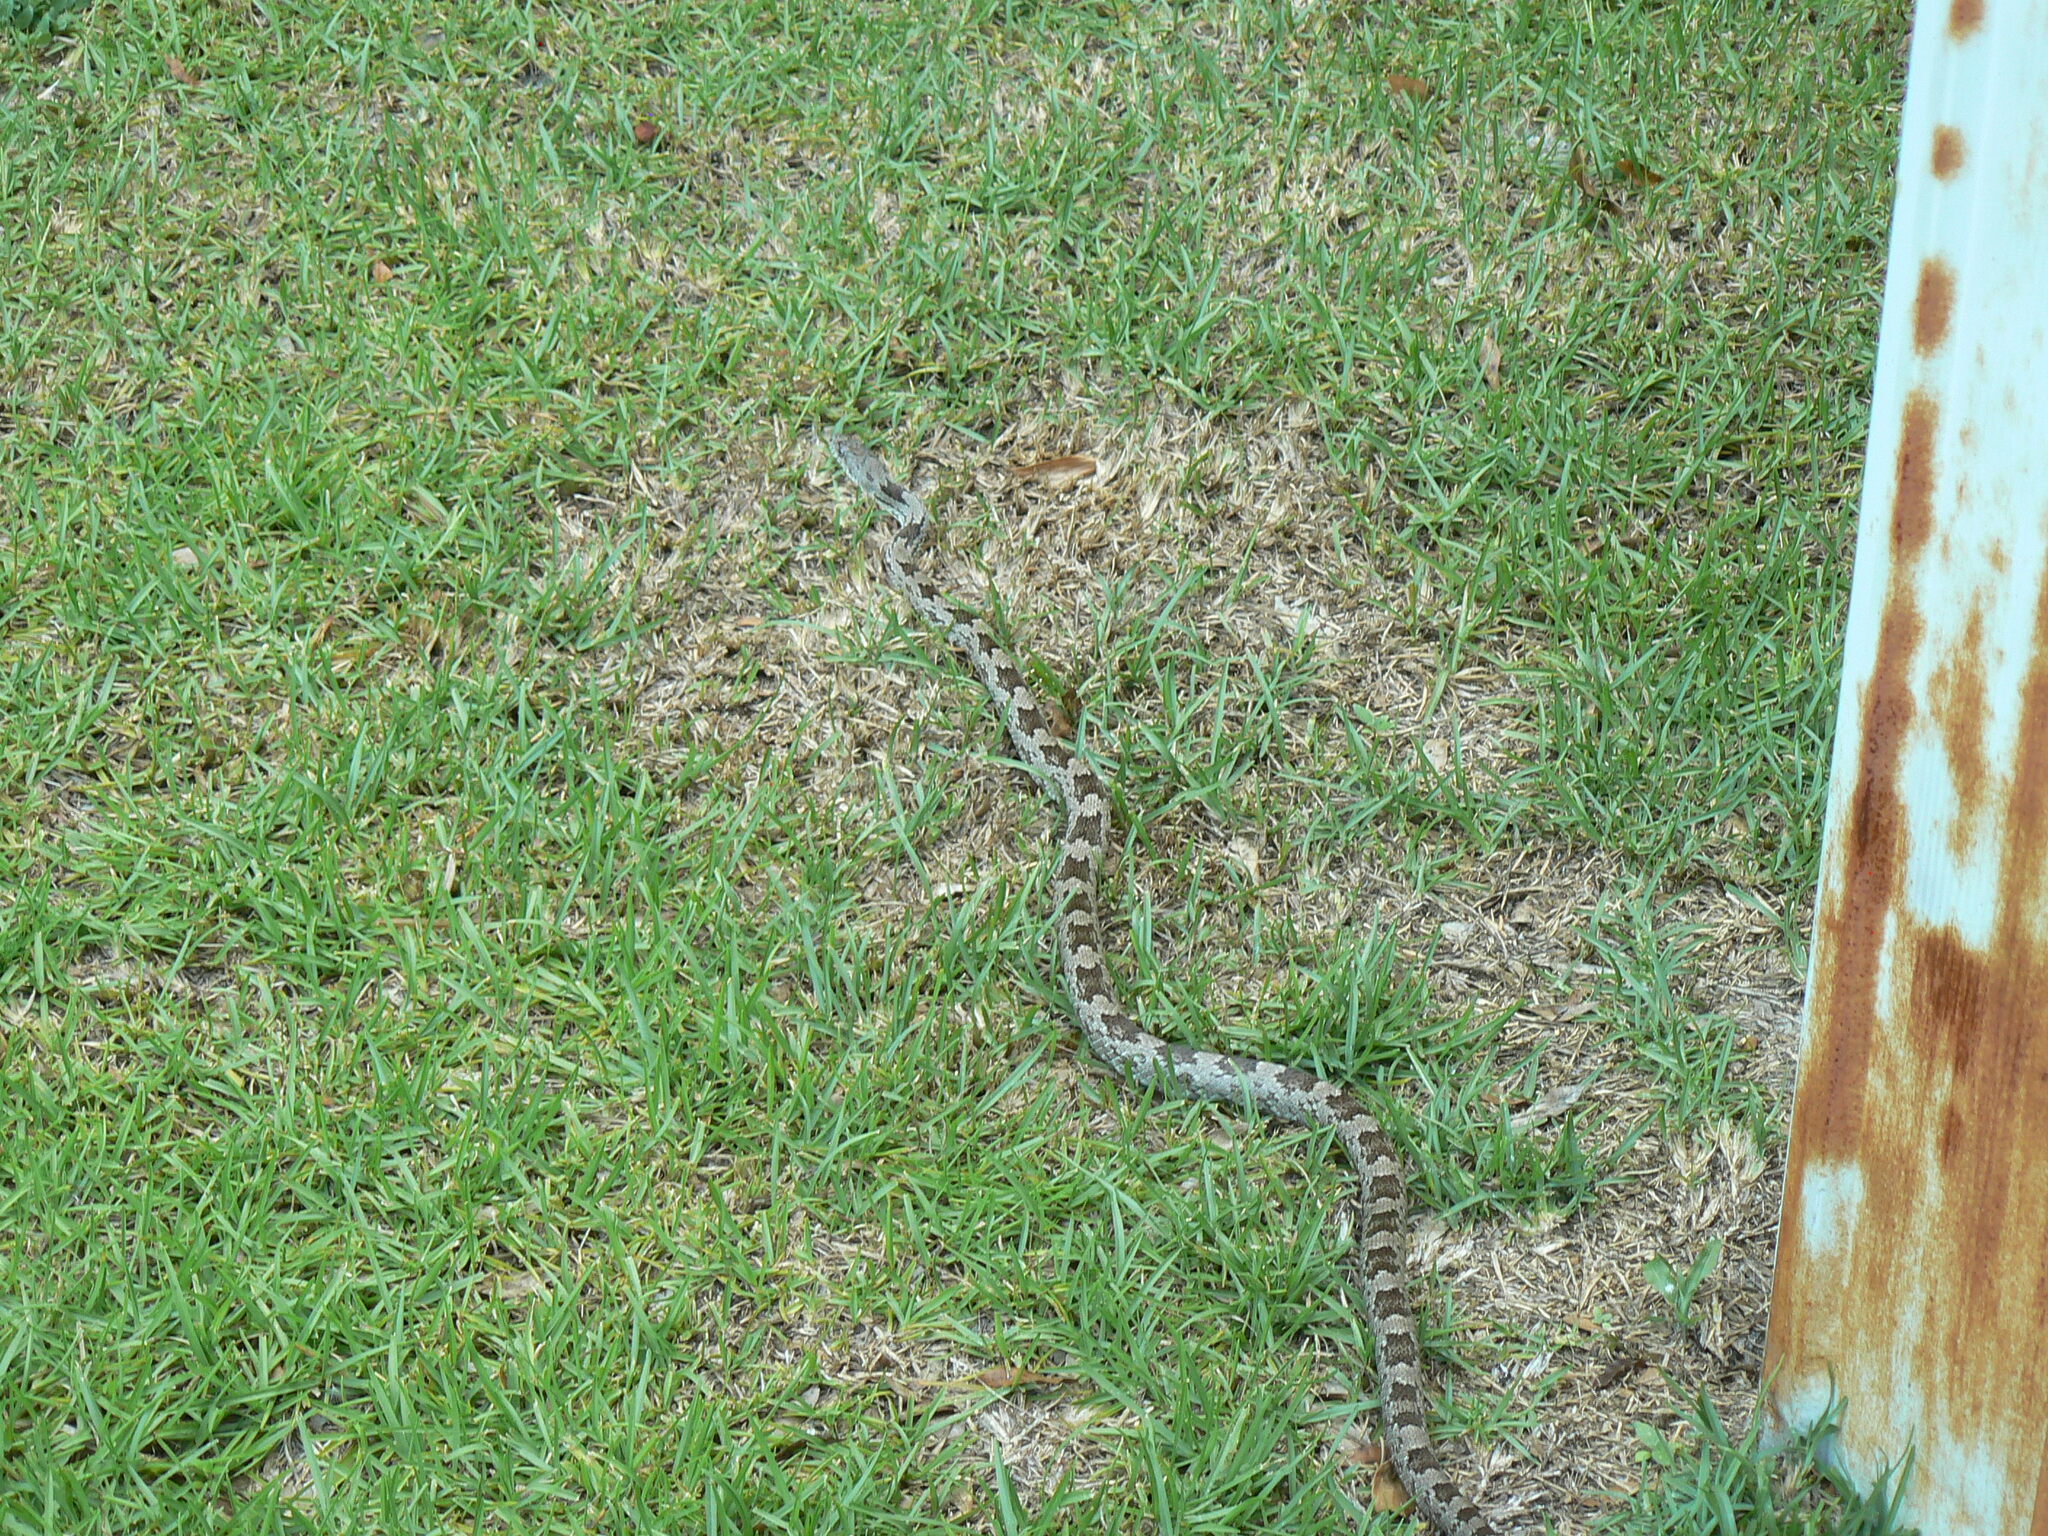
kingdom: Animalia
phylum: Chordata
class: Squamata
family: Colubridae
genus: Pantherophis
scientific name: Pantherophis
